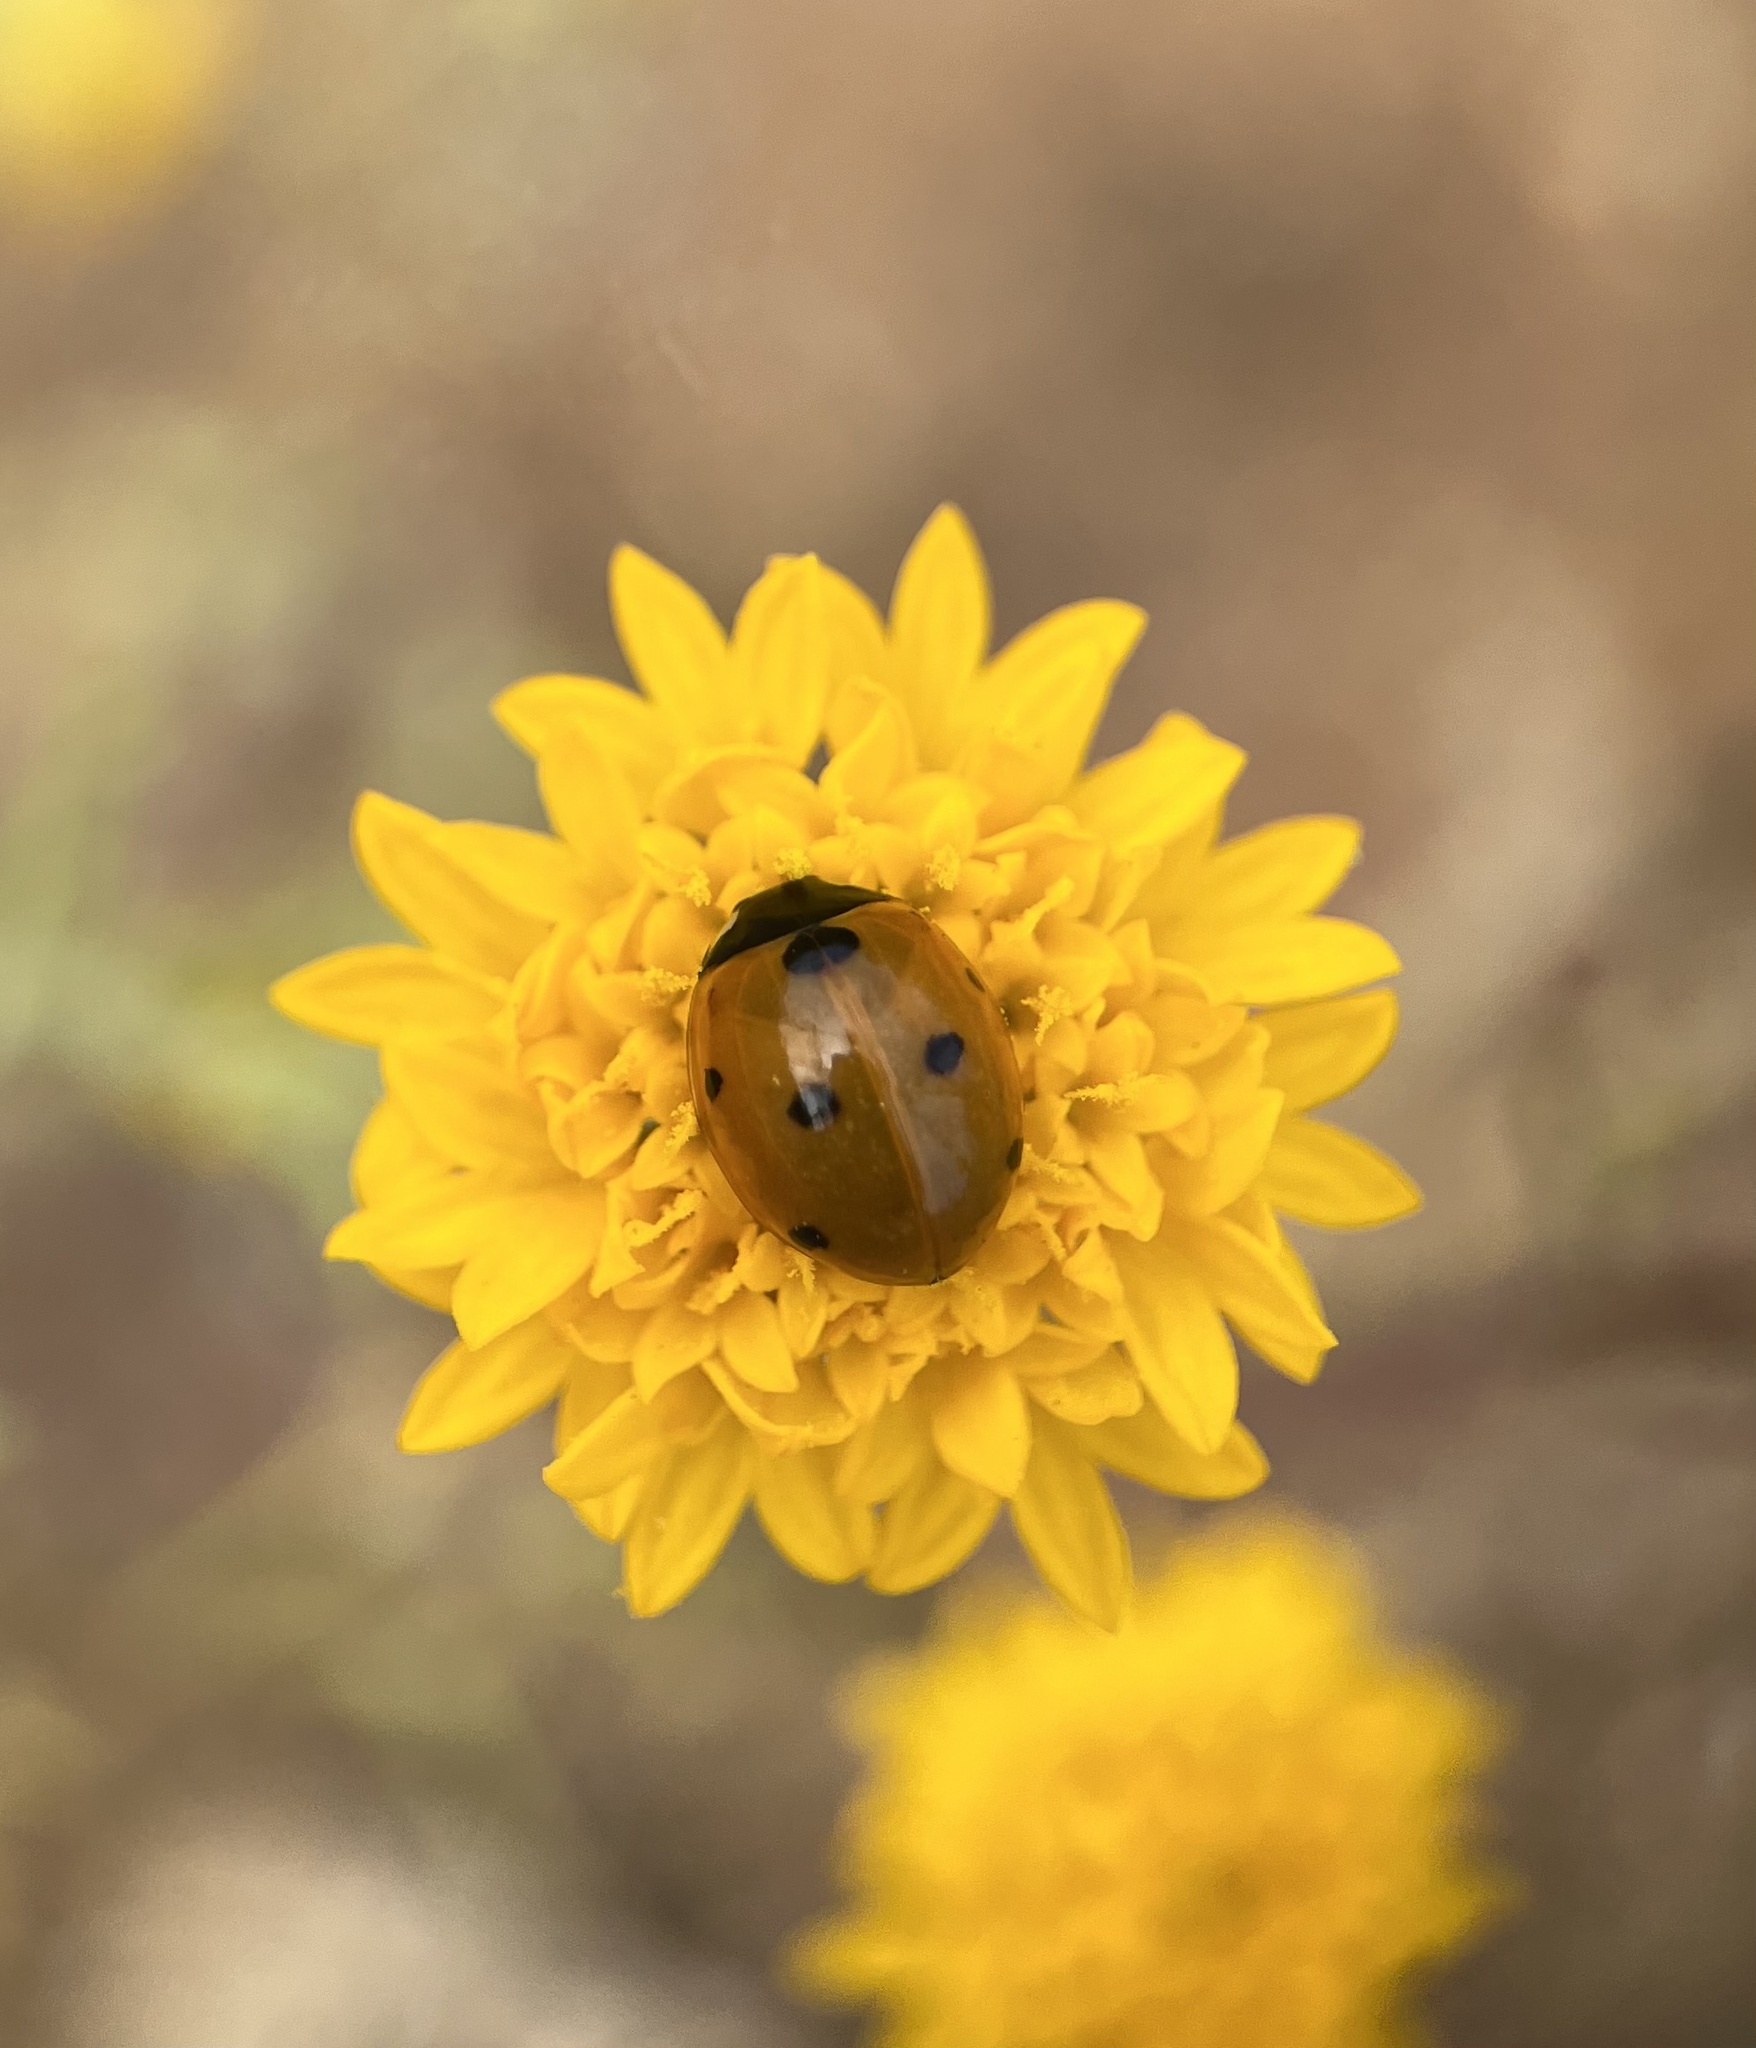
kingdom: Animalia
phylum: Arthropoda
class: Insecta
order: Coleoptera
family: Coccinellidae
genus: Coccinella
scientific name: Coccinella septempunctata
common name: Sevenspotted lady beetle
